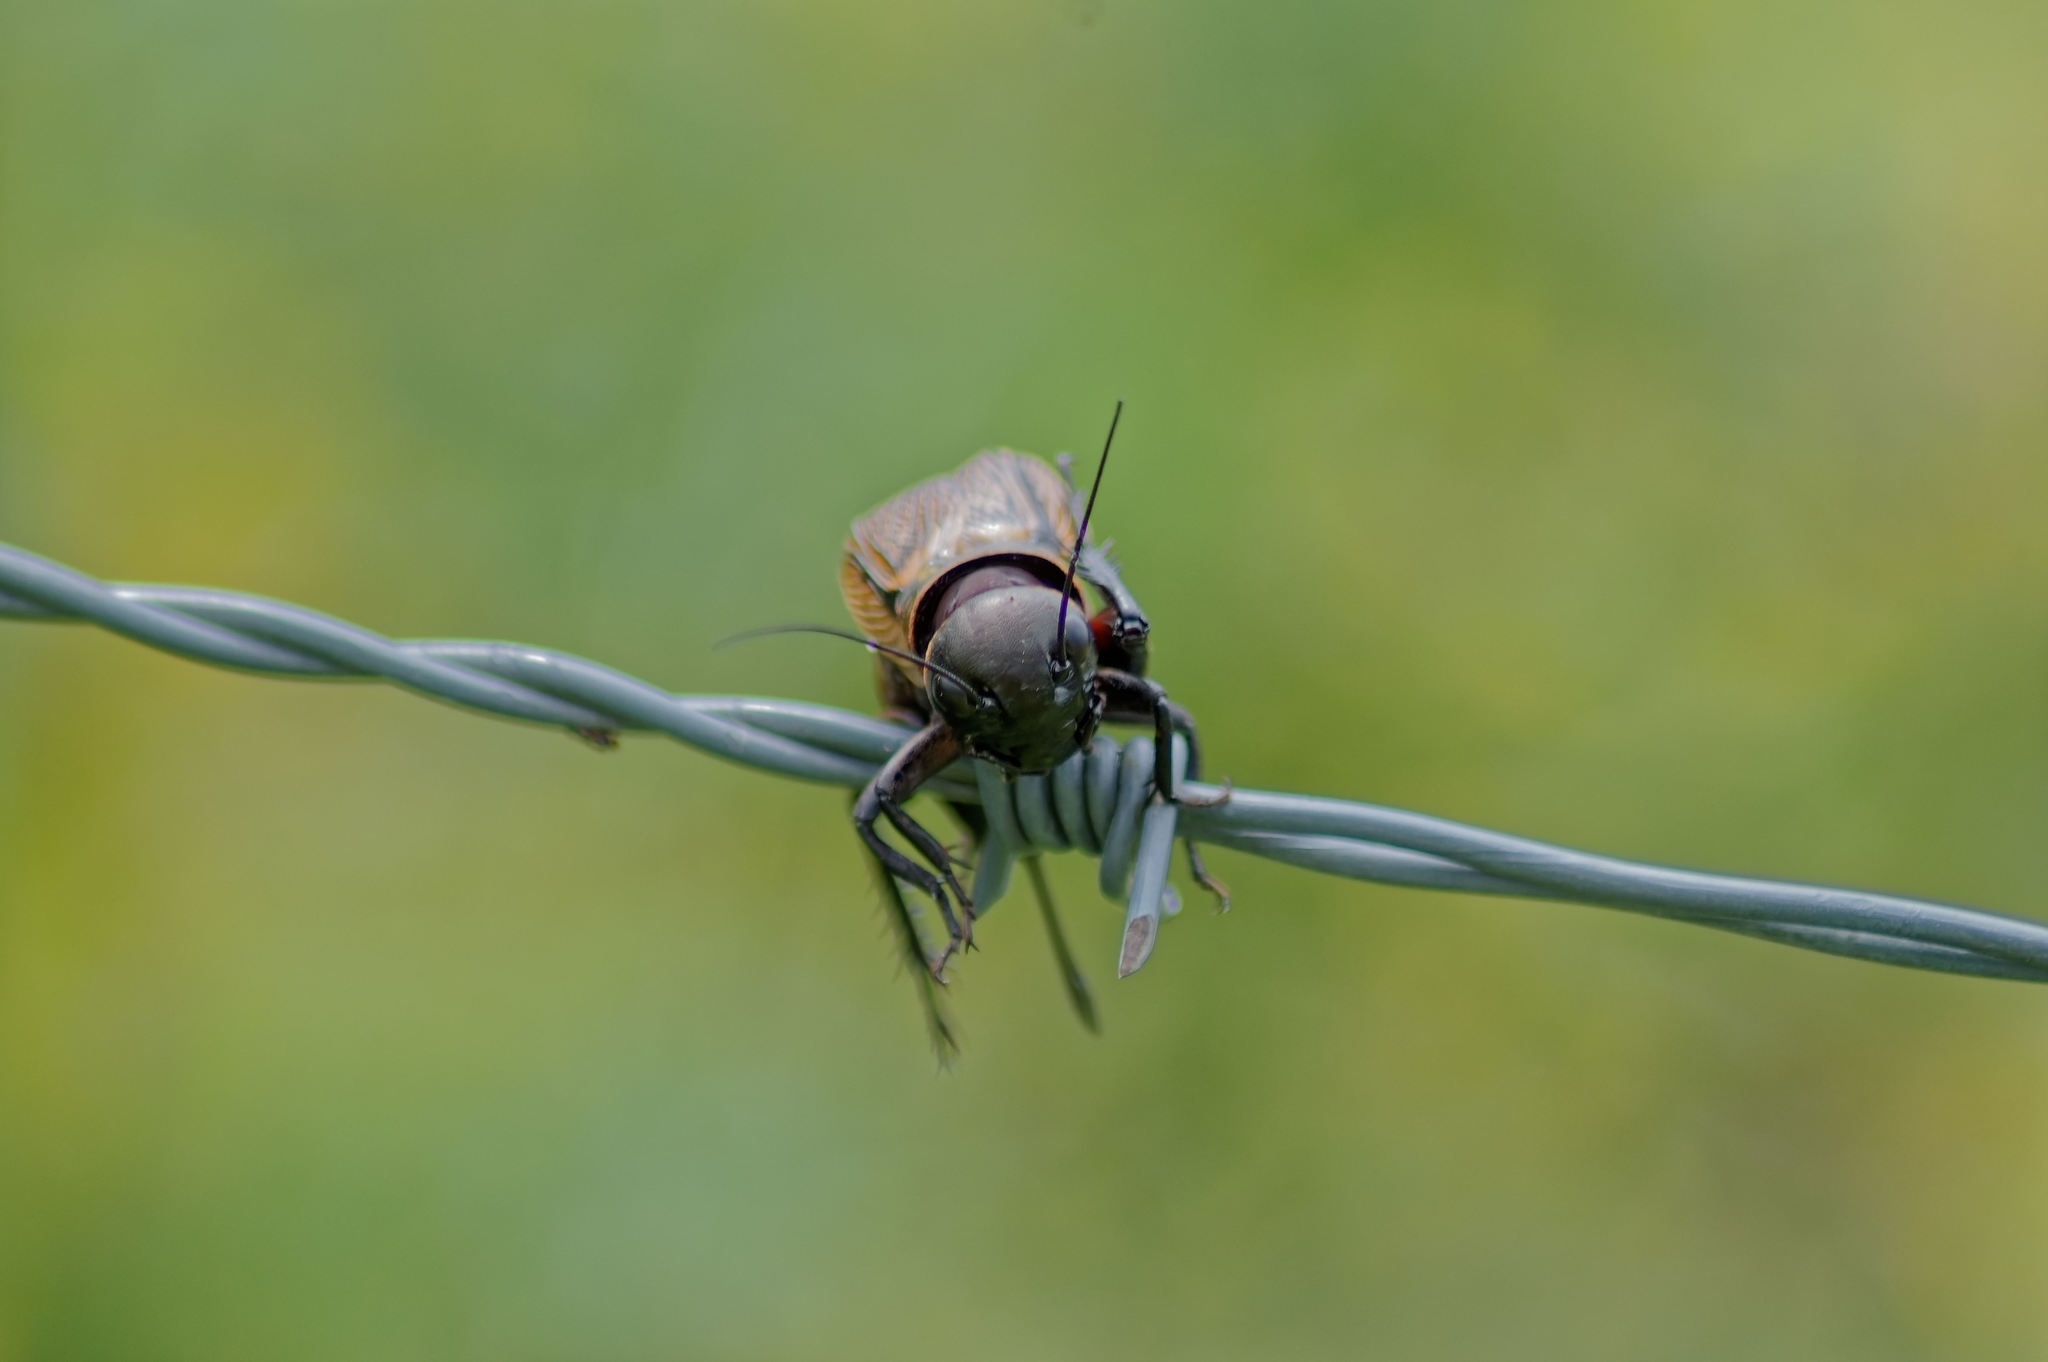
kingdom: Animalia
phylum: Arthropoda
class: Insecta
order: Orthoptera
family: Gryllidae
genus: Gryllus
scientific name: Gryllus campestris
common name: Field cricket
